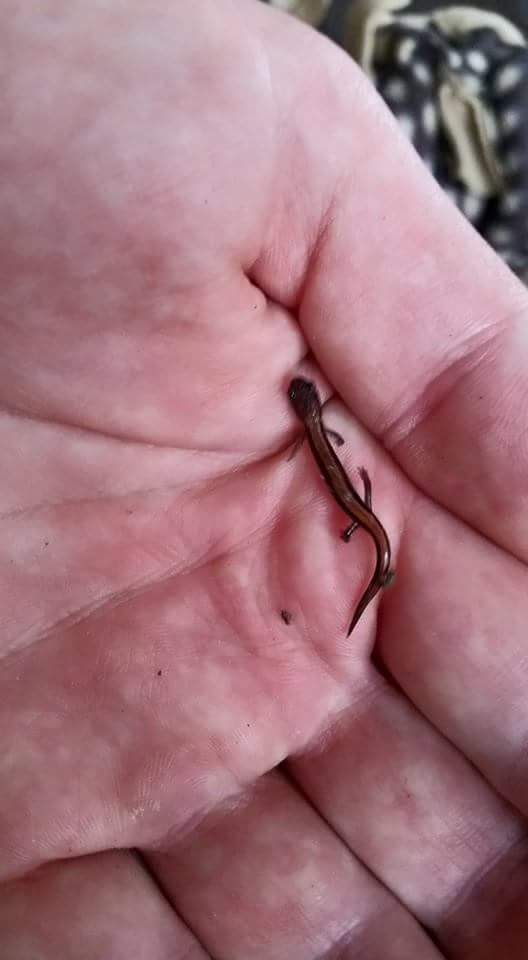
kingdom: Animalia
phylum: Chordata
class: Amphibia
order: Caudata
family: Plethodontidae
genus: Plethodon
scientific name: Plethodon cinereus
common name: Redback salamander
